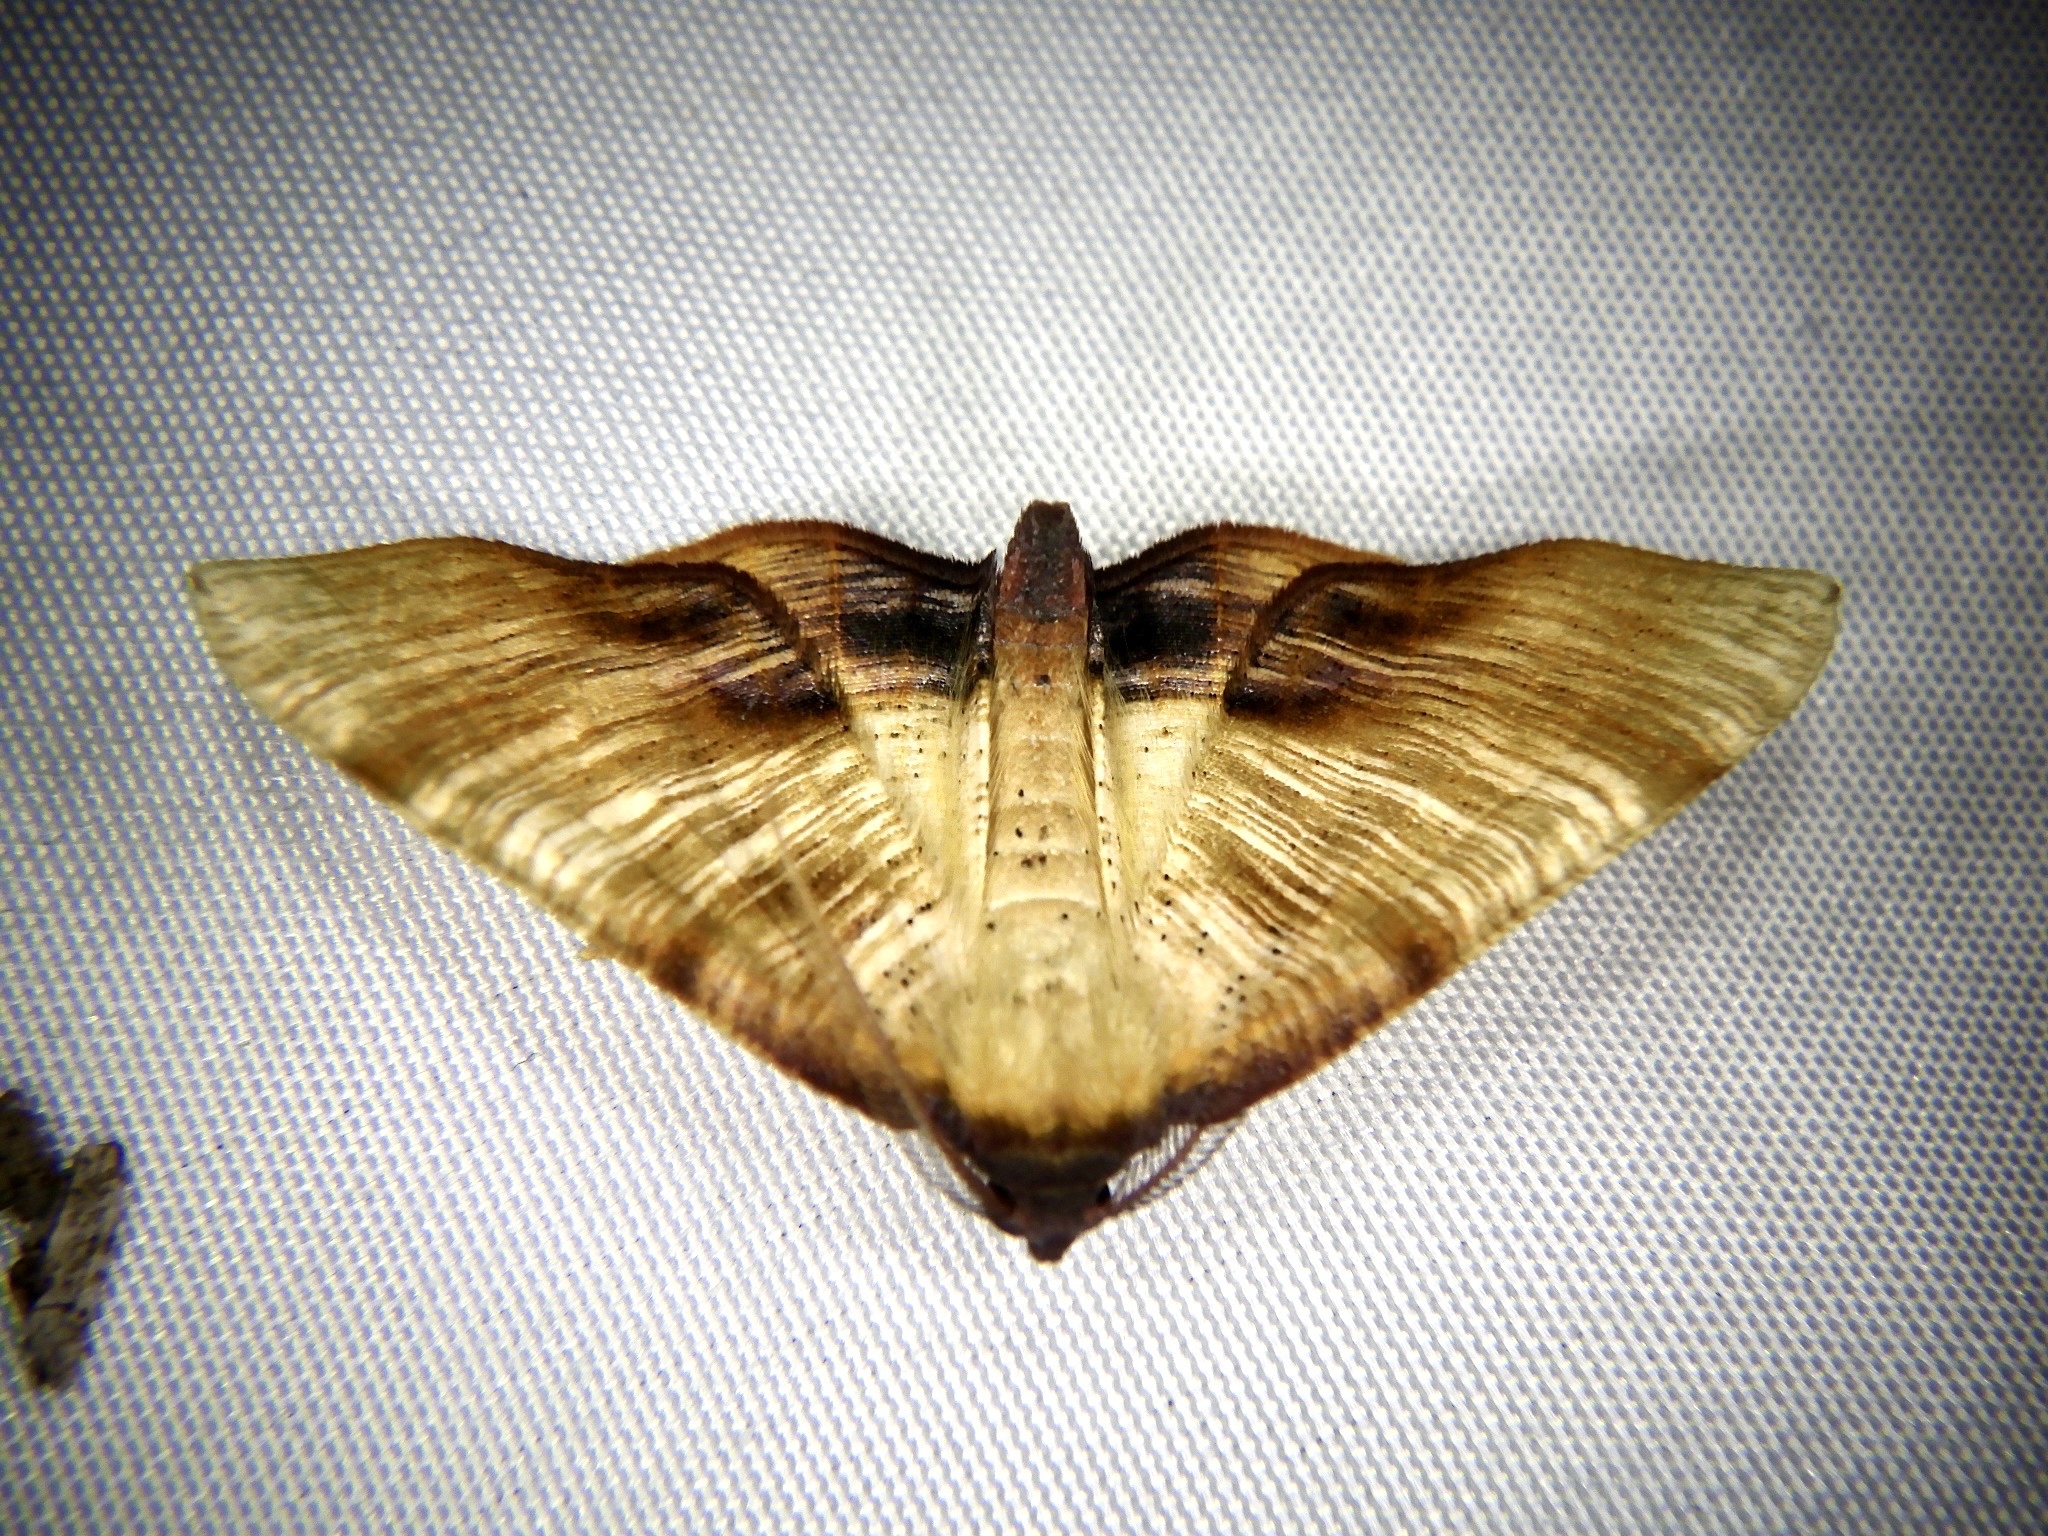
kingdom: Animalia
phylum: Arthropoda
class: Insecta
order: Lepidoptera
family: Geometridae
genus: Plagodis
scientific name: Plagodis dolabraria
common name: Scorched wing
